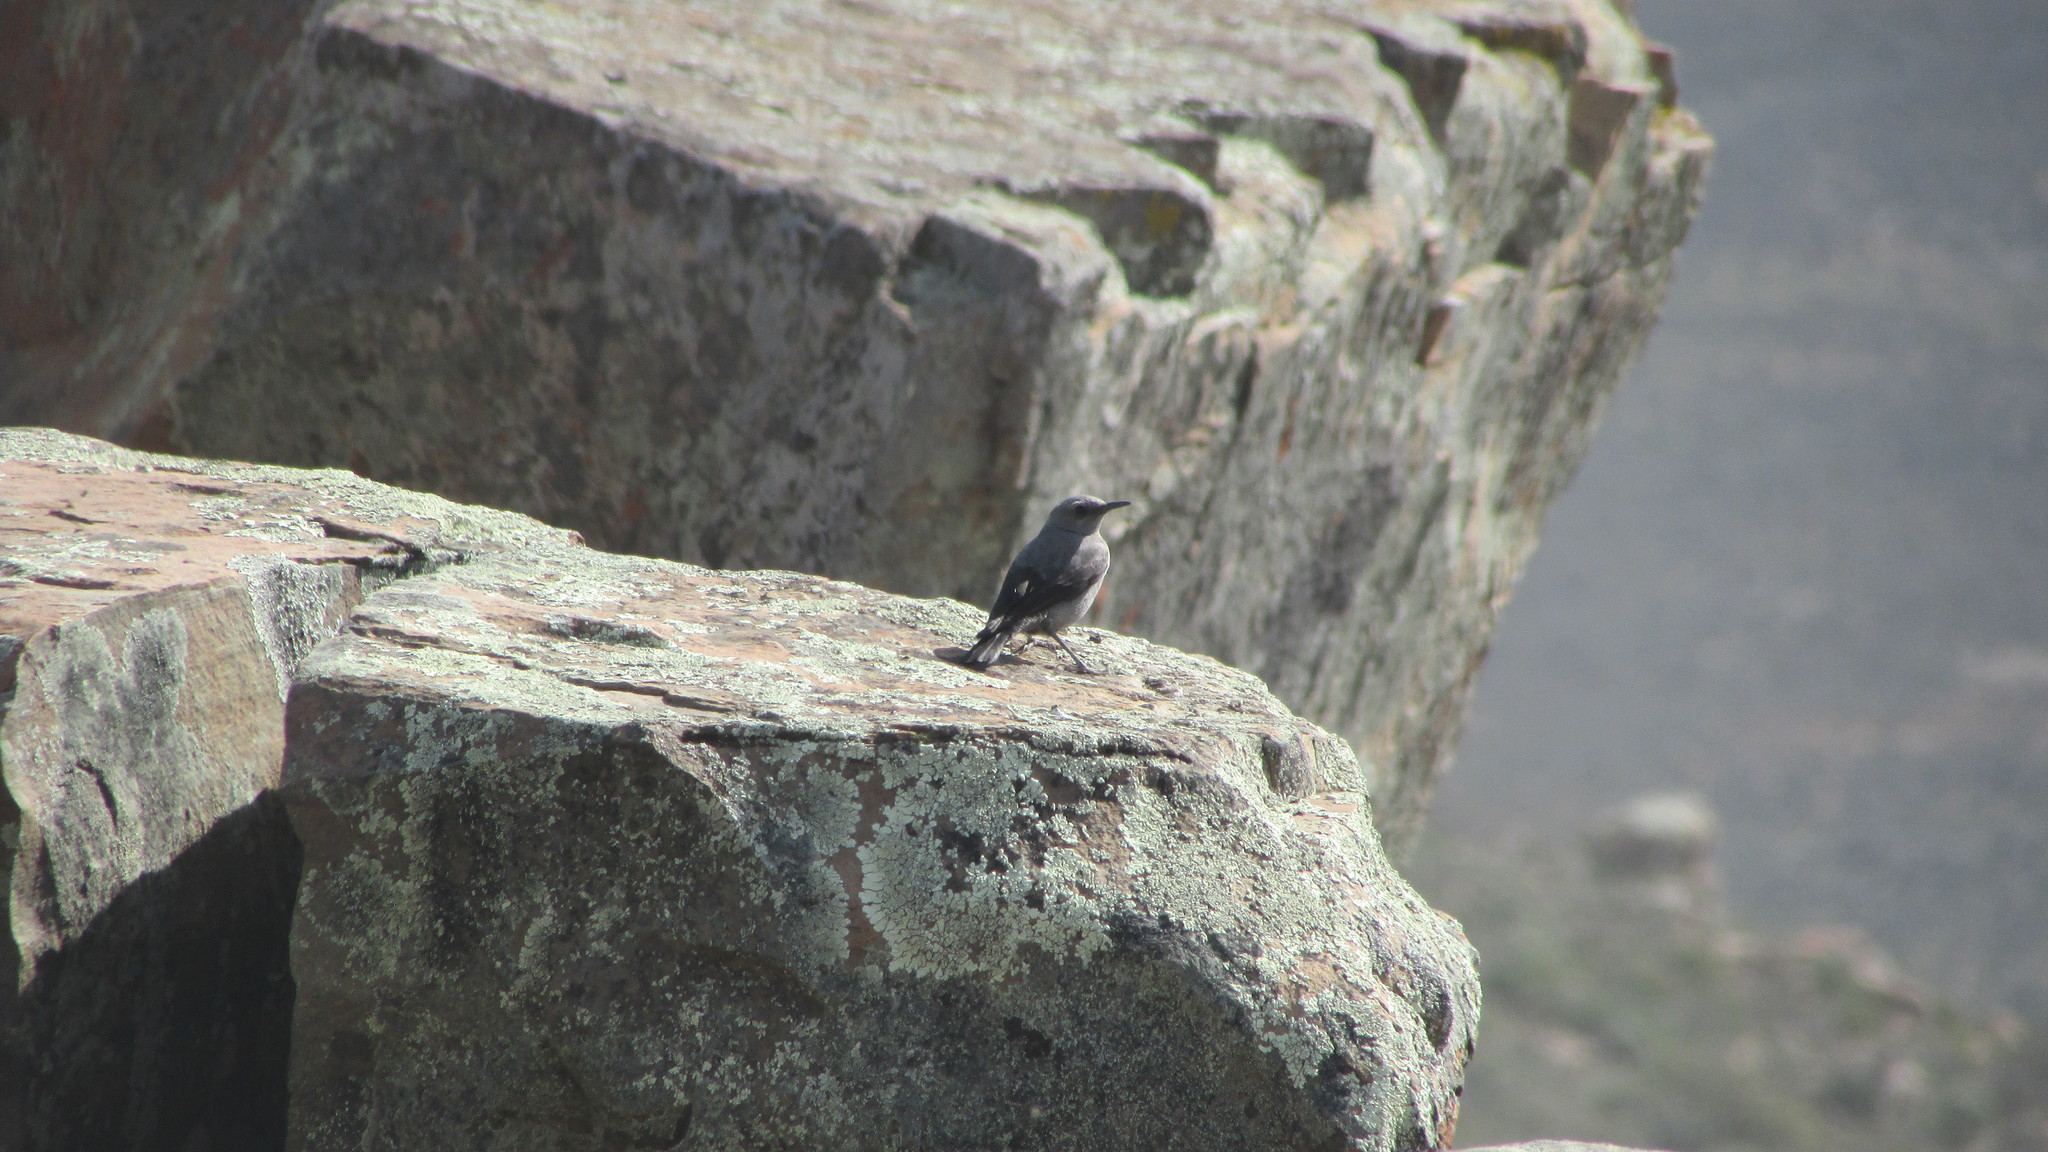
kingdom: Animalia
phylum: Chordata
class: Aves
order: Passeriformes
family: Muscicapidae
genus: Emarginata
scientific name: Emarginata schlegelii
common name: Karoo chat
